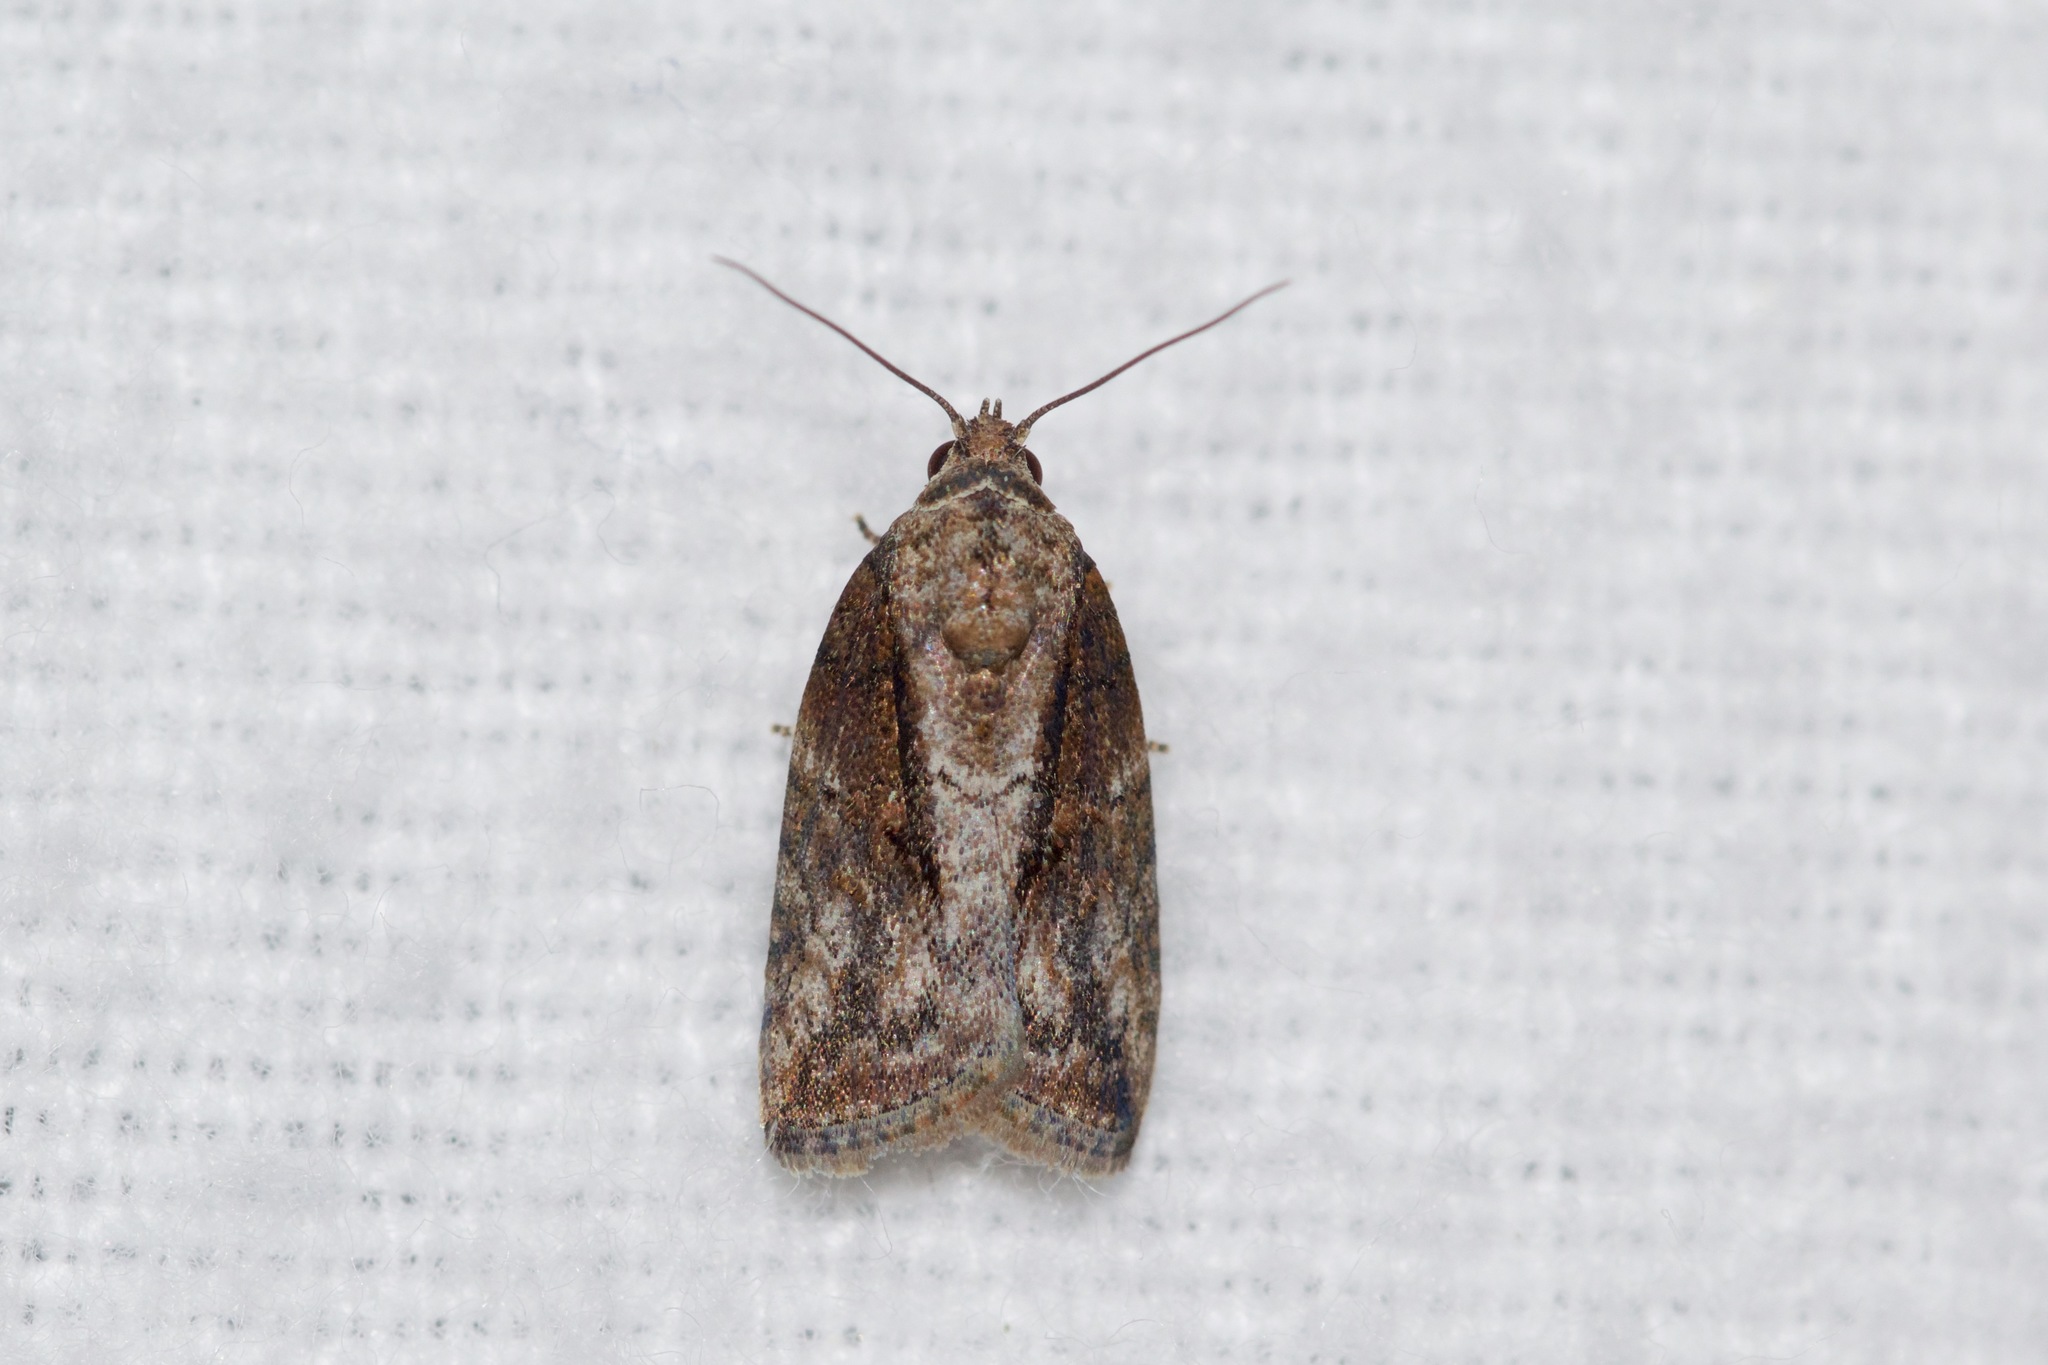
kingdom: Animalia
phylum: Arthropoda
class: Insecta
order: Lepidoptera
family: Nolidae
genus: Garella
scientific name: Garella nilotica
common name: Black-olive caterpillar moth
